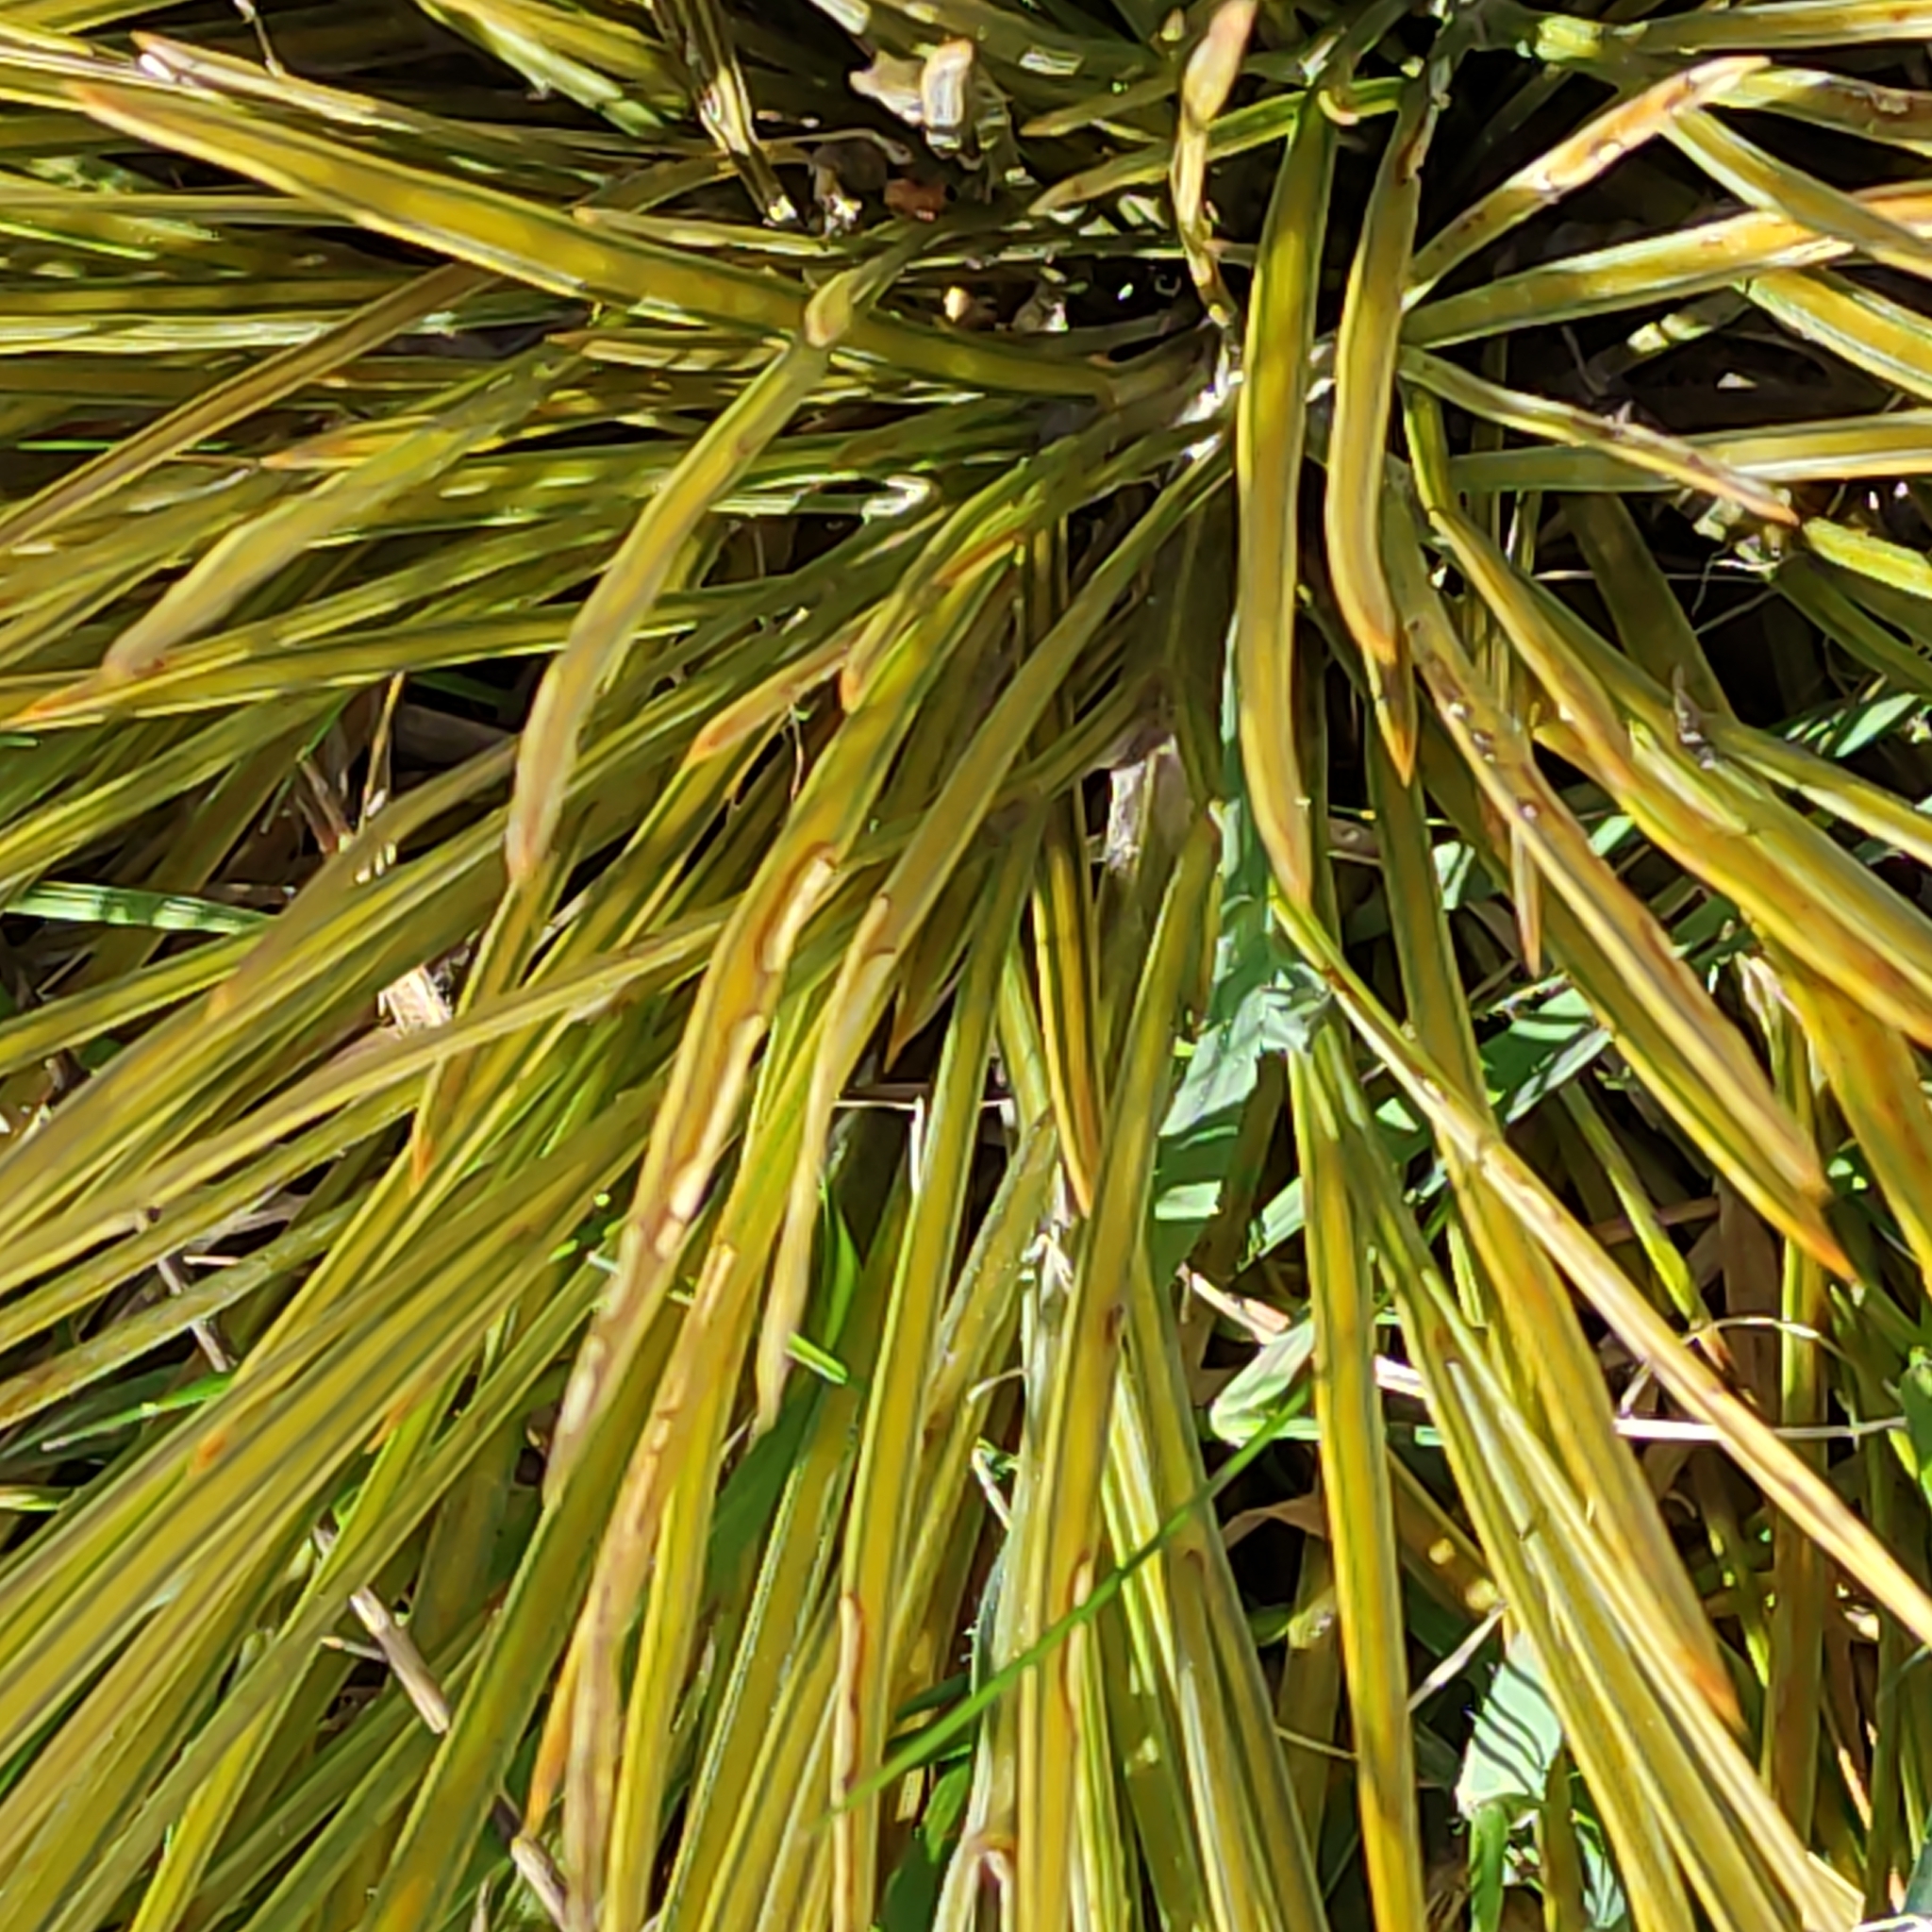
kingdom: Plantae
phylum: Tracheophyta
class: Magnoliopsida
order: Apiales
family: Apiaceae
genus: Aciphylla
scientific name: Aciphylla subflabellata
